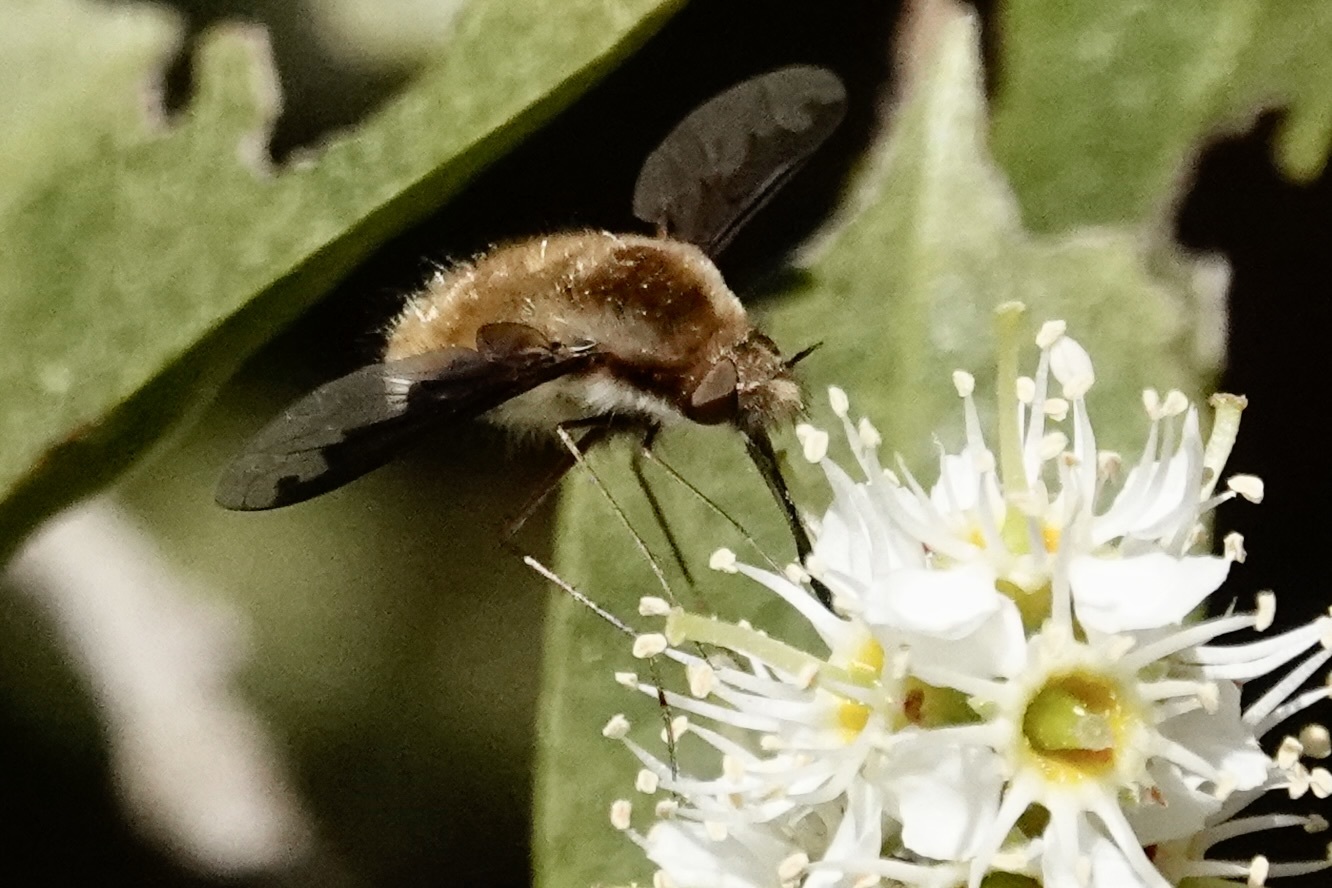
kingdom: Animalia
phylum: Arthropoda
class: Insecta
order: Diptera
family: Bombyliidae
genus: Bombylius
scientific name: Bombylius major
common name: Bee fly
